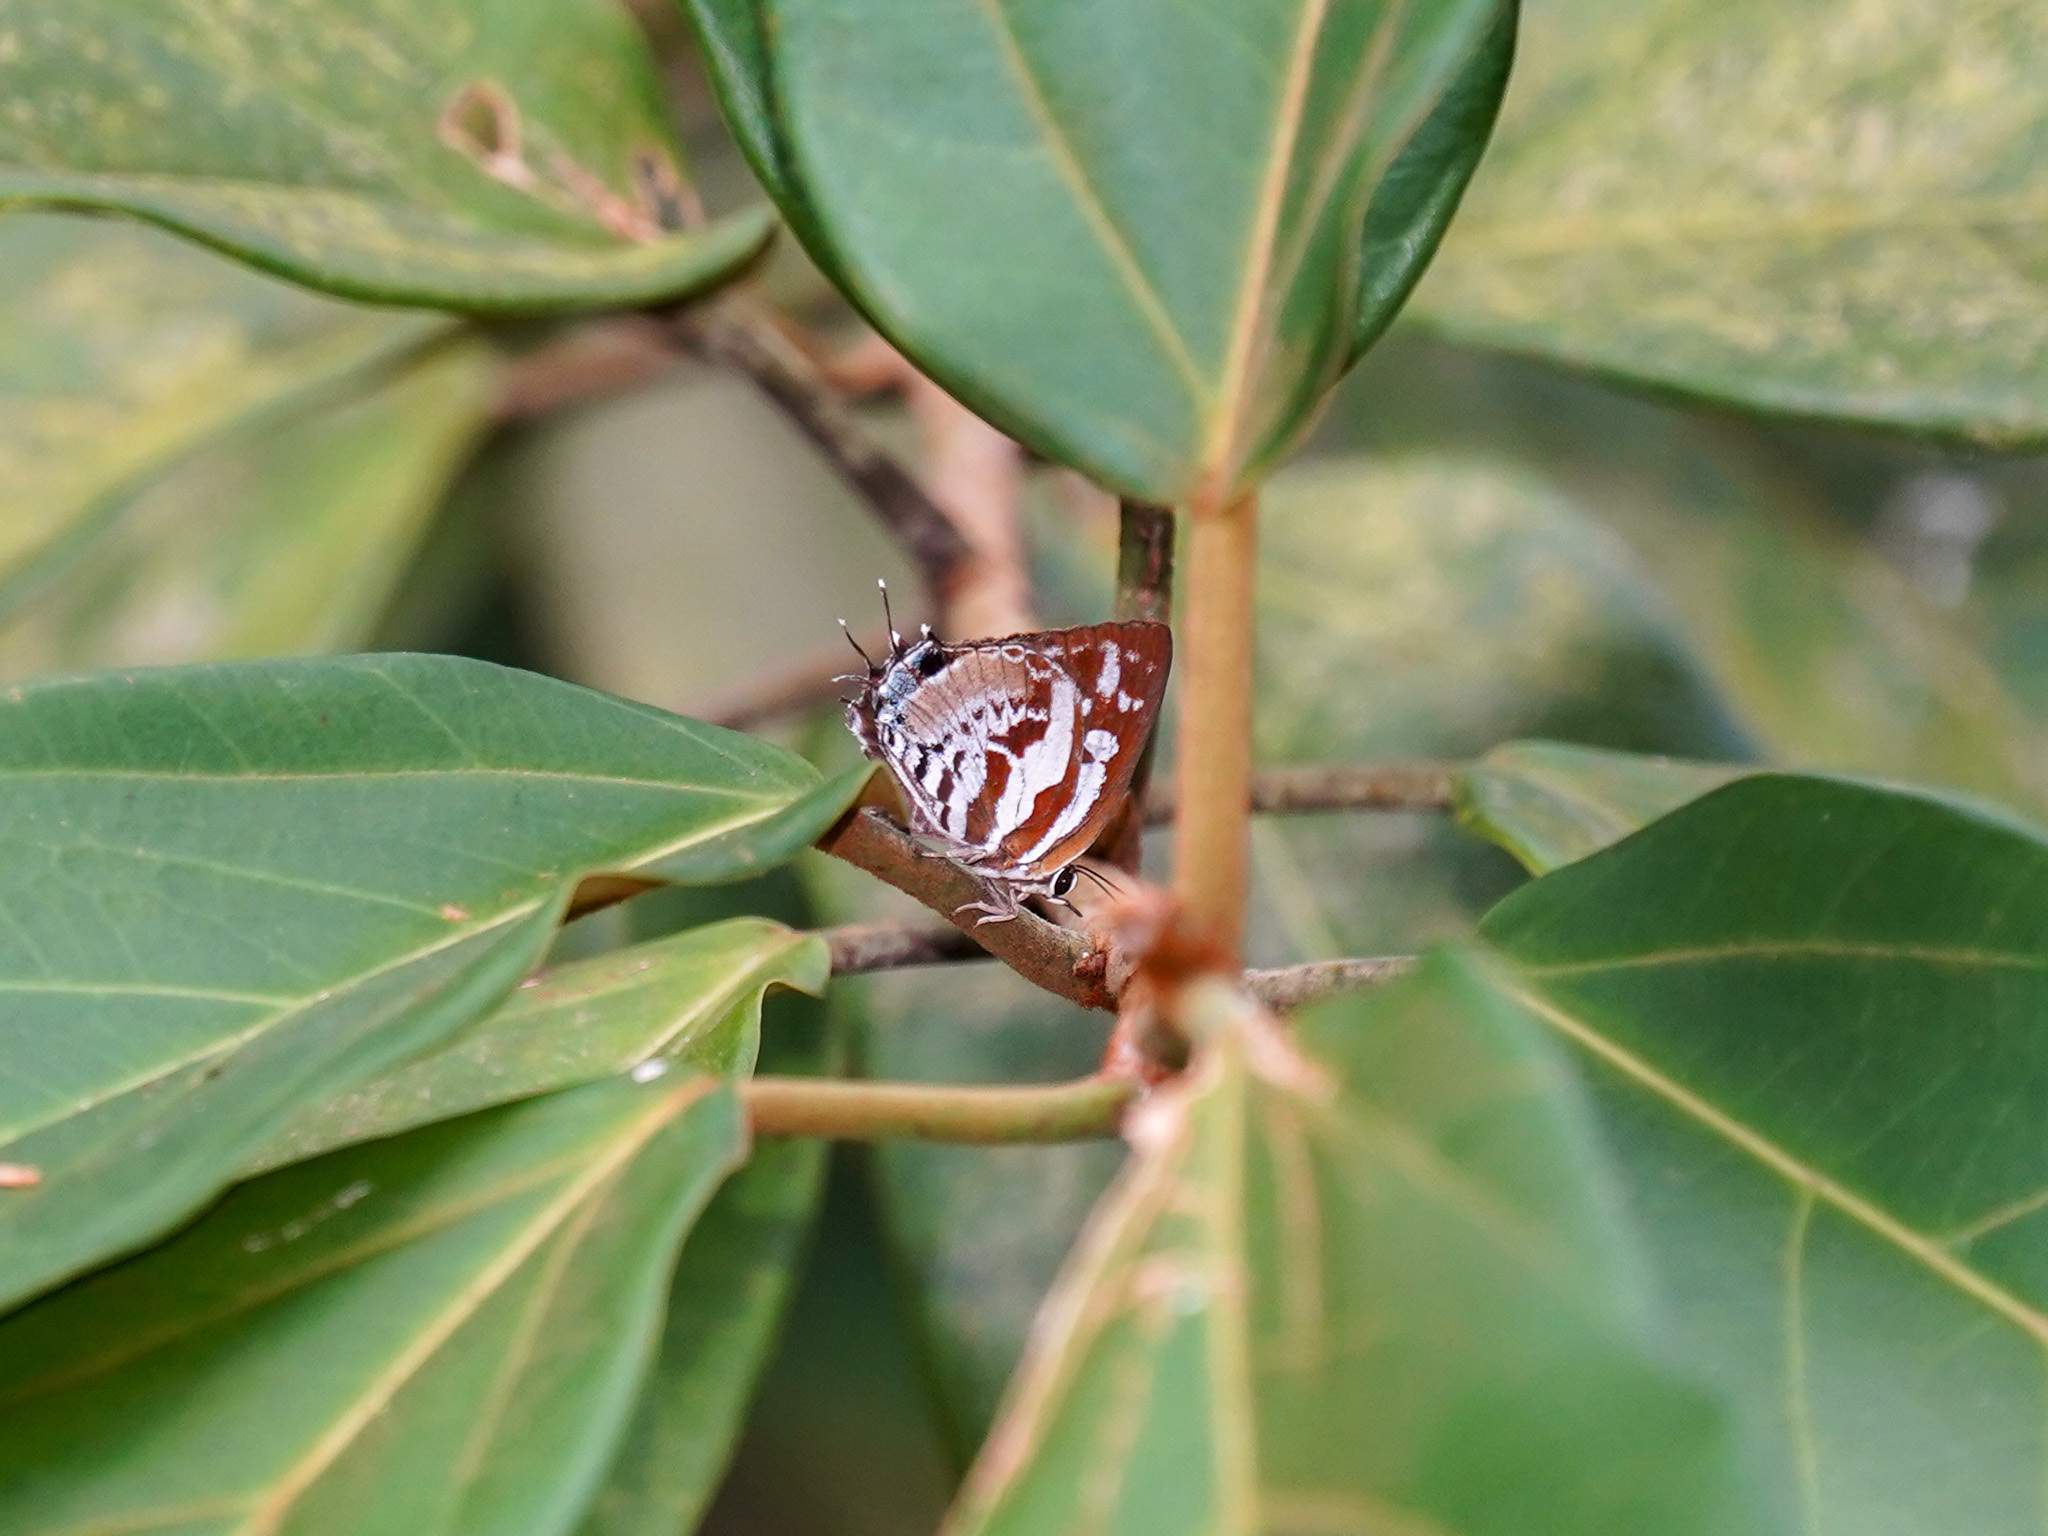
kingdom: Animalia
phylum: Arthropoda
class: Insecta
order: Lepidoptera
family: Lycaenidae
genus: Iraota
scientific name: Iraota rochana
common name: Scarce silverstreak blue
